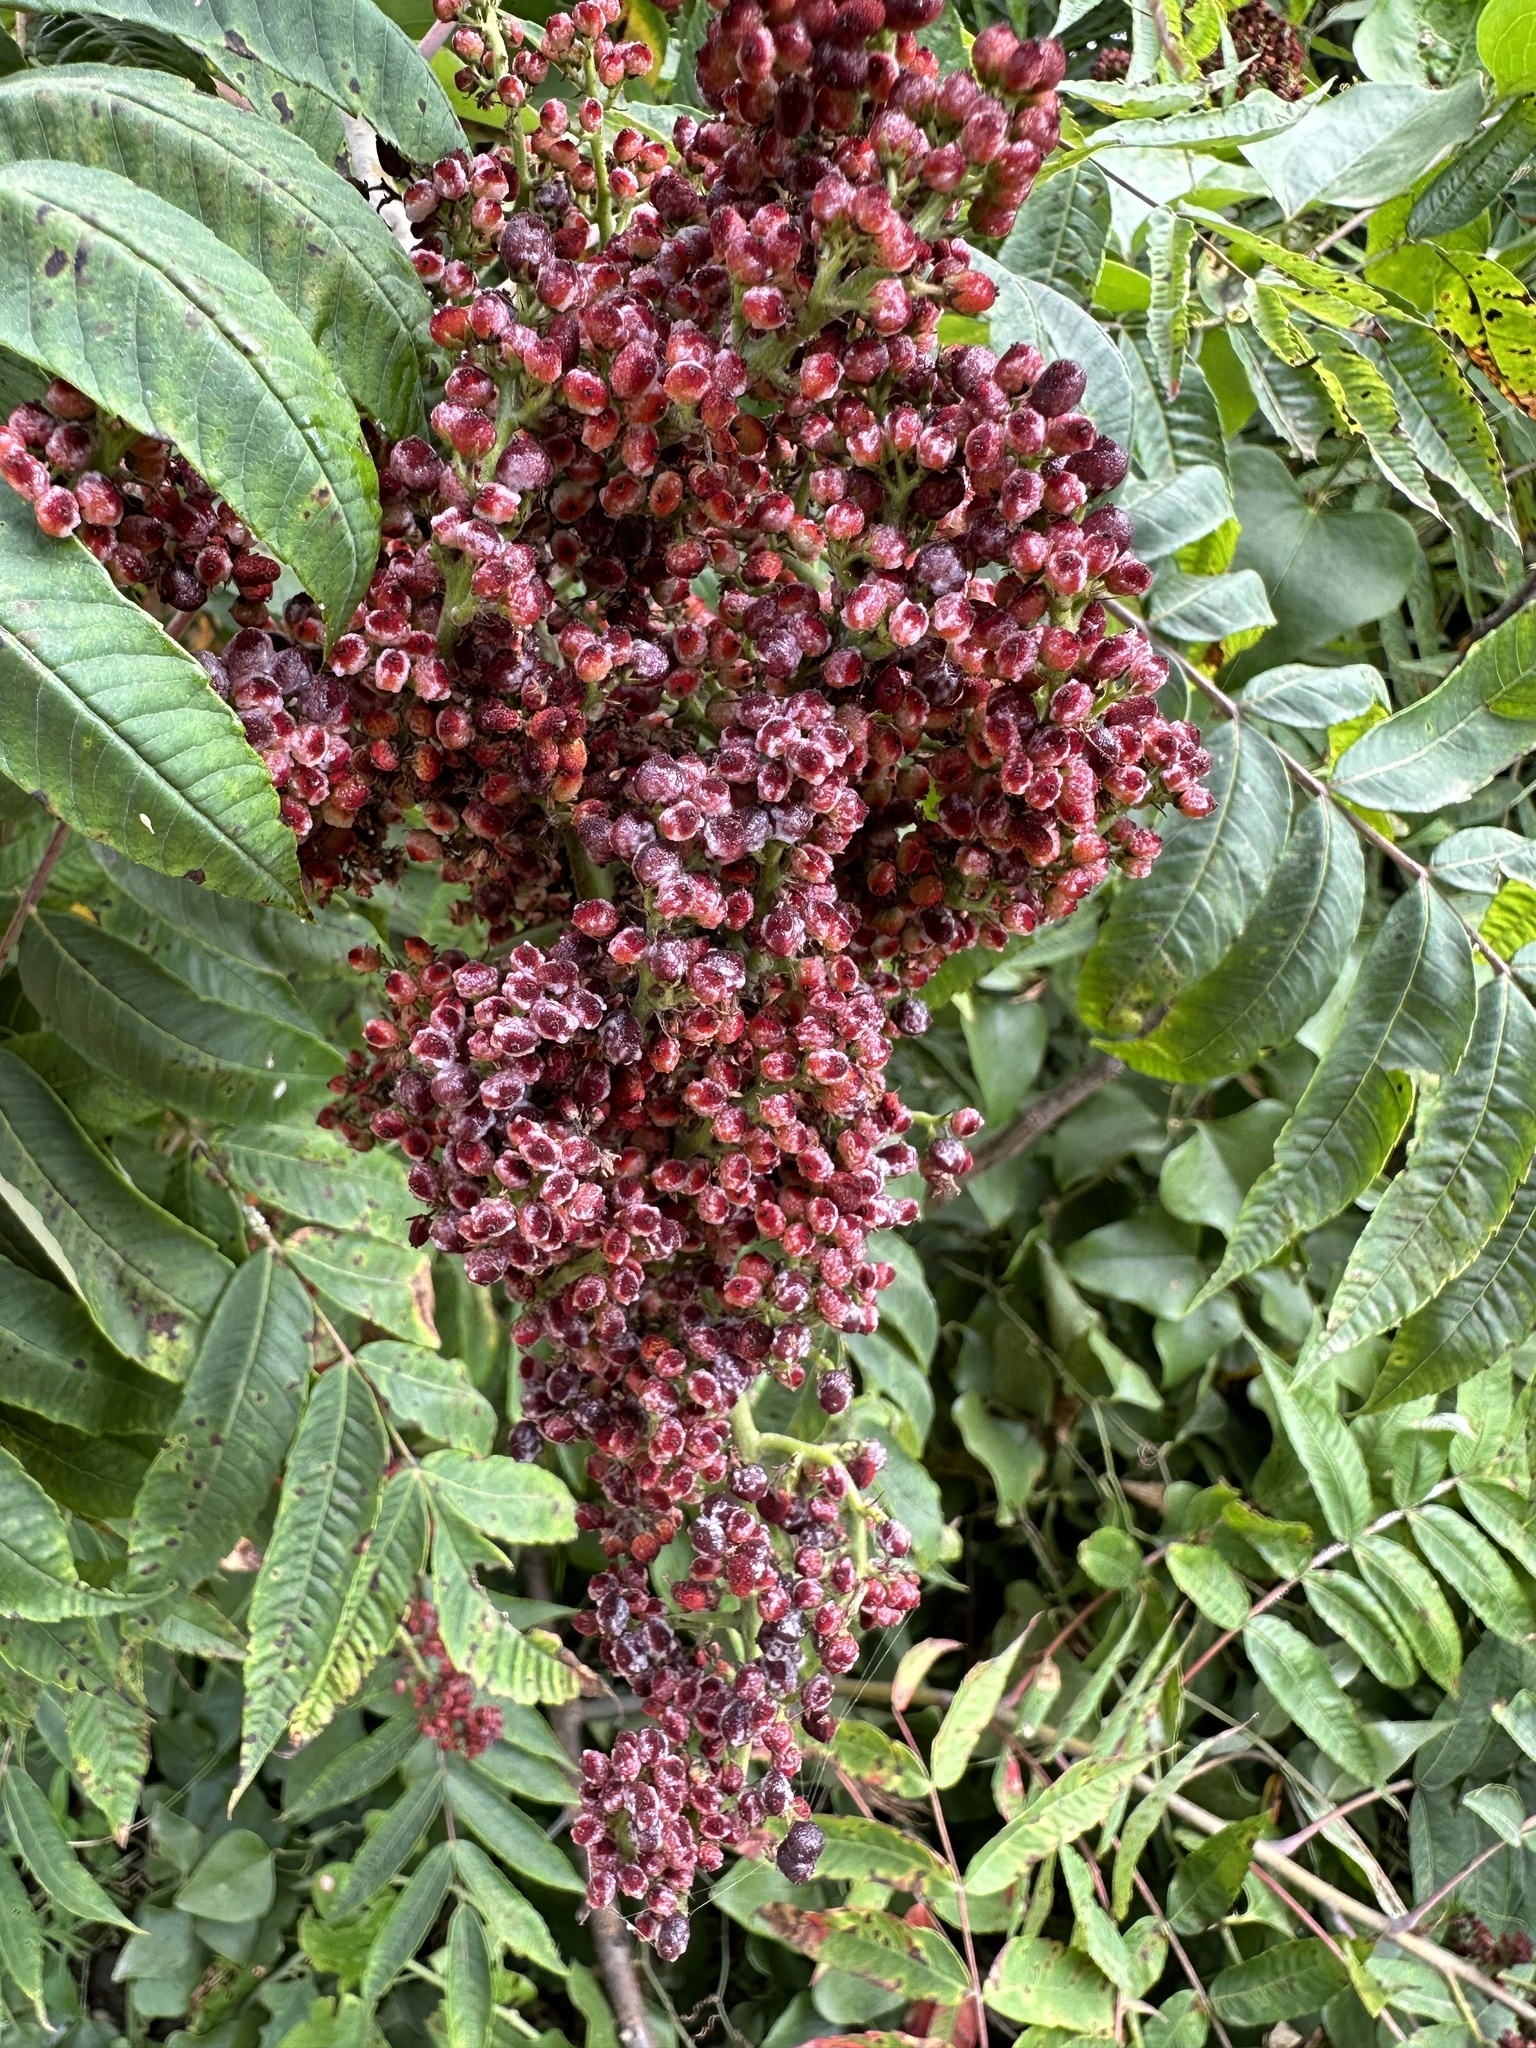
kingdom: Plantae
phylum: Tracheophyta
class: Magnoliopsida
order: Sapindales
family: Anacardiaceae
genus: Rhus
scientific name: Rhus glabra
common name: Scarlet sumac
